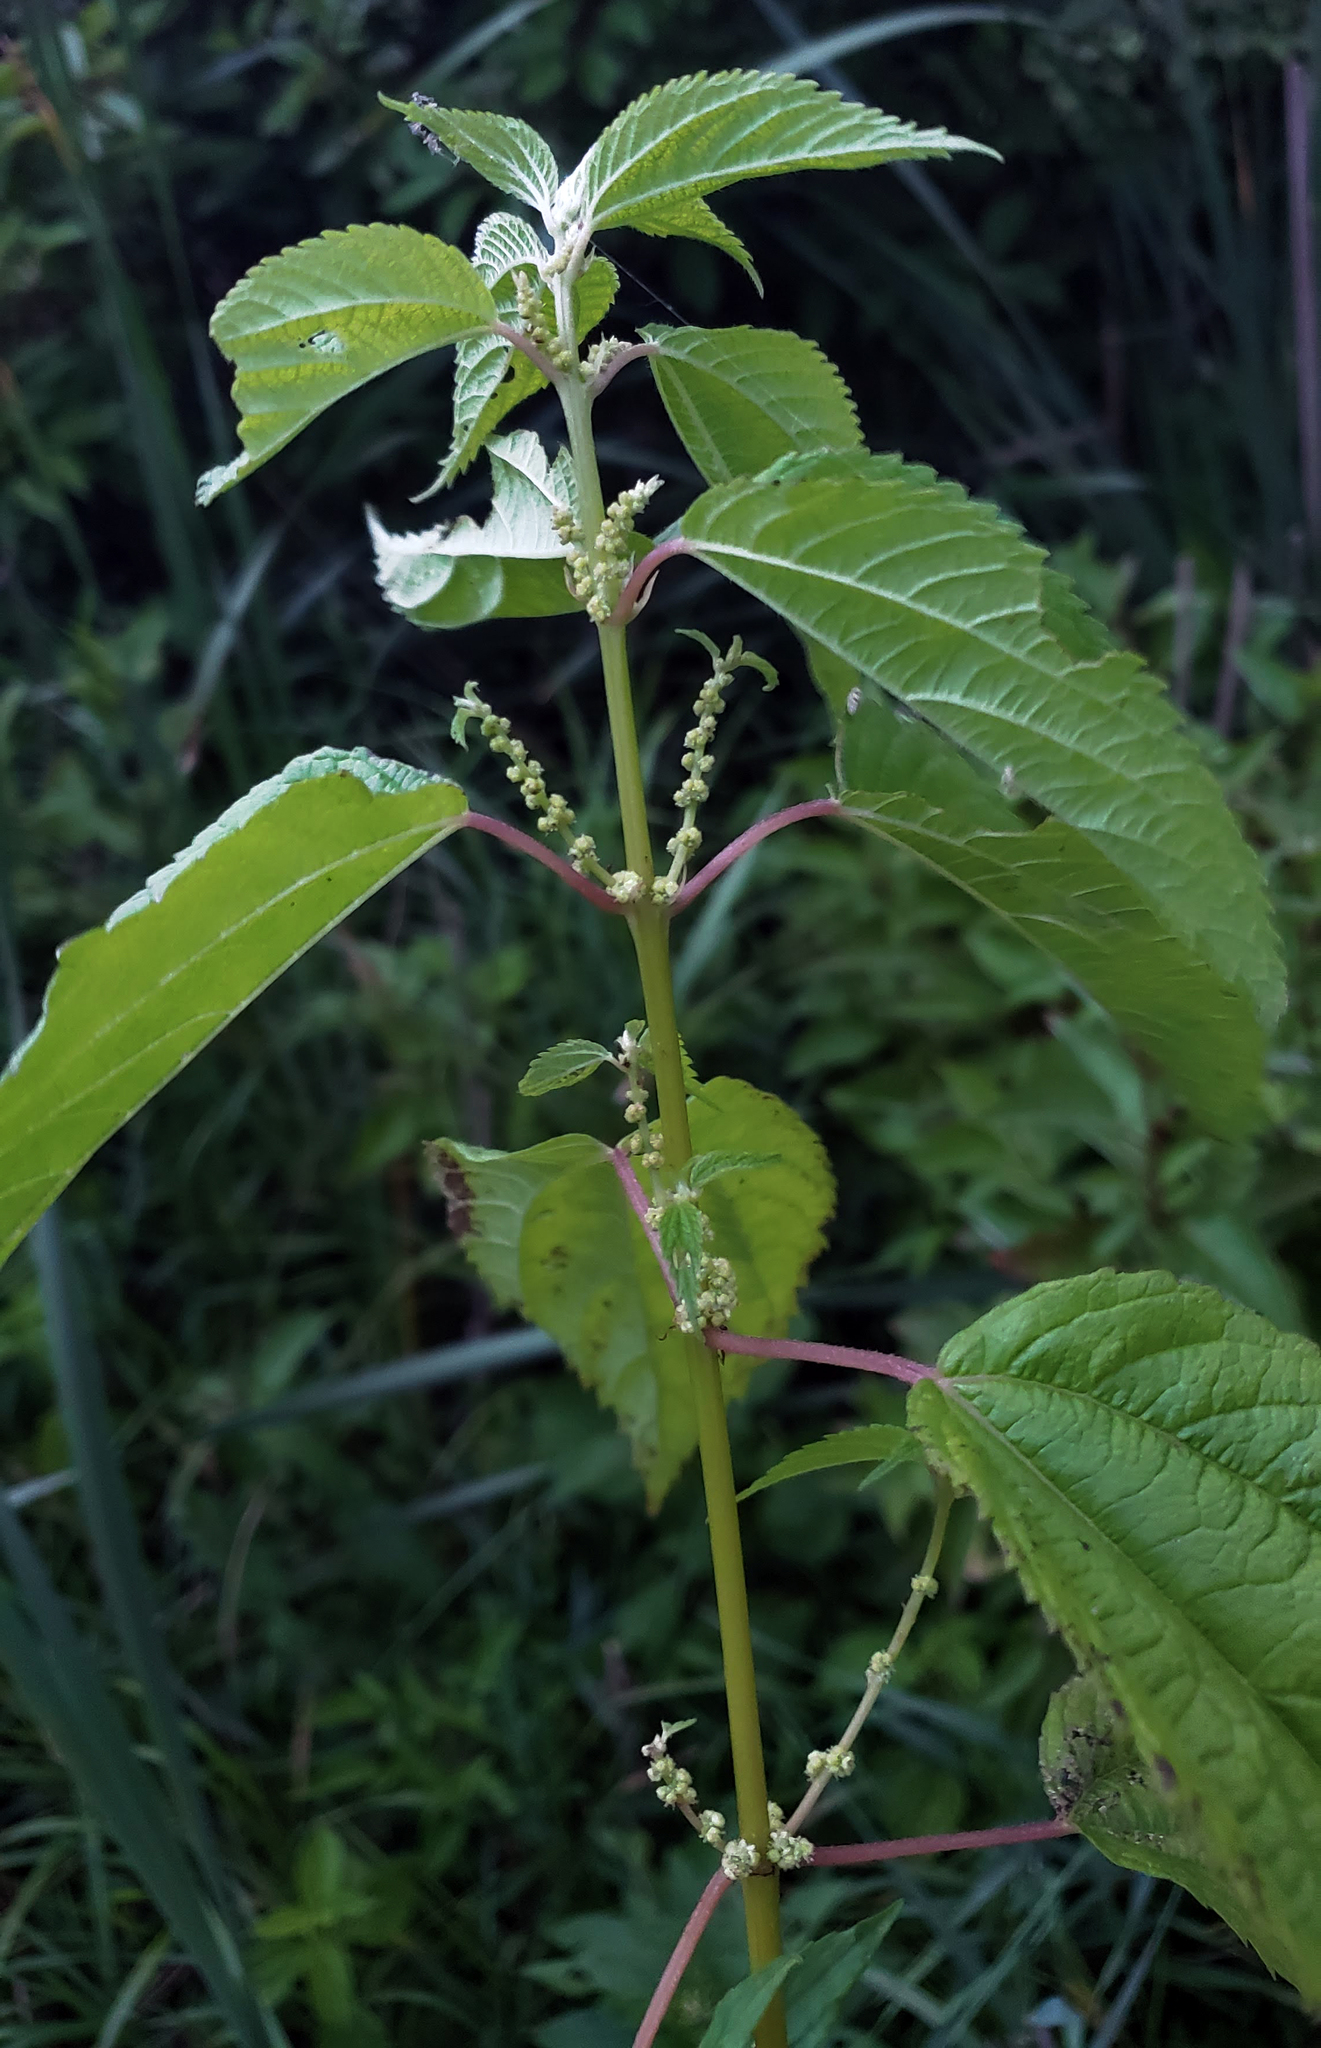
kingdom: Plantae
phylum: Tracheophyta
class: Magnoliopsida
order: Rosales
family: Urticaceae
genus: Boehmeria
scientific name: Boehmeria cylindrica
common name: Bog-hemp
